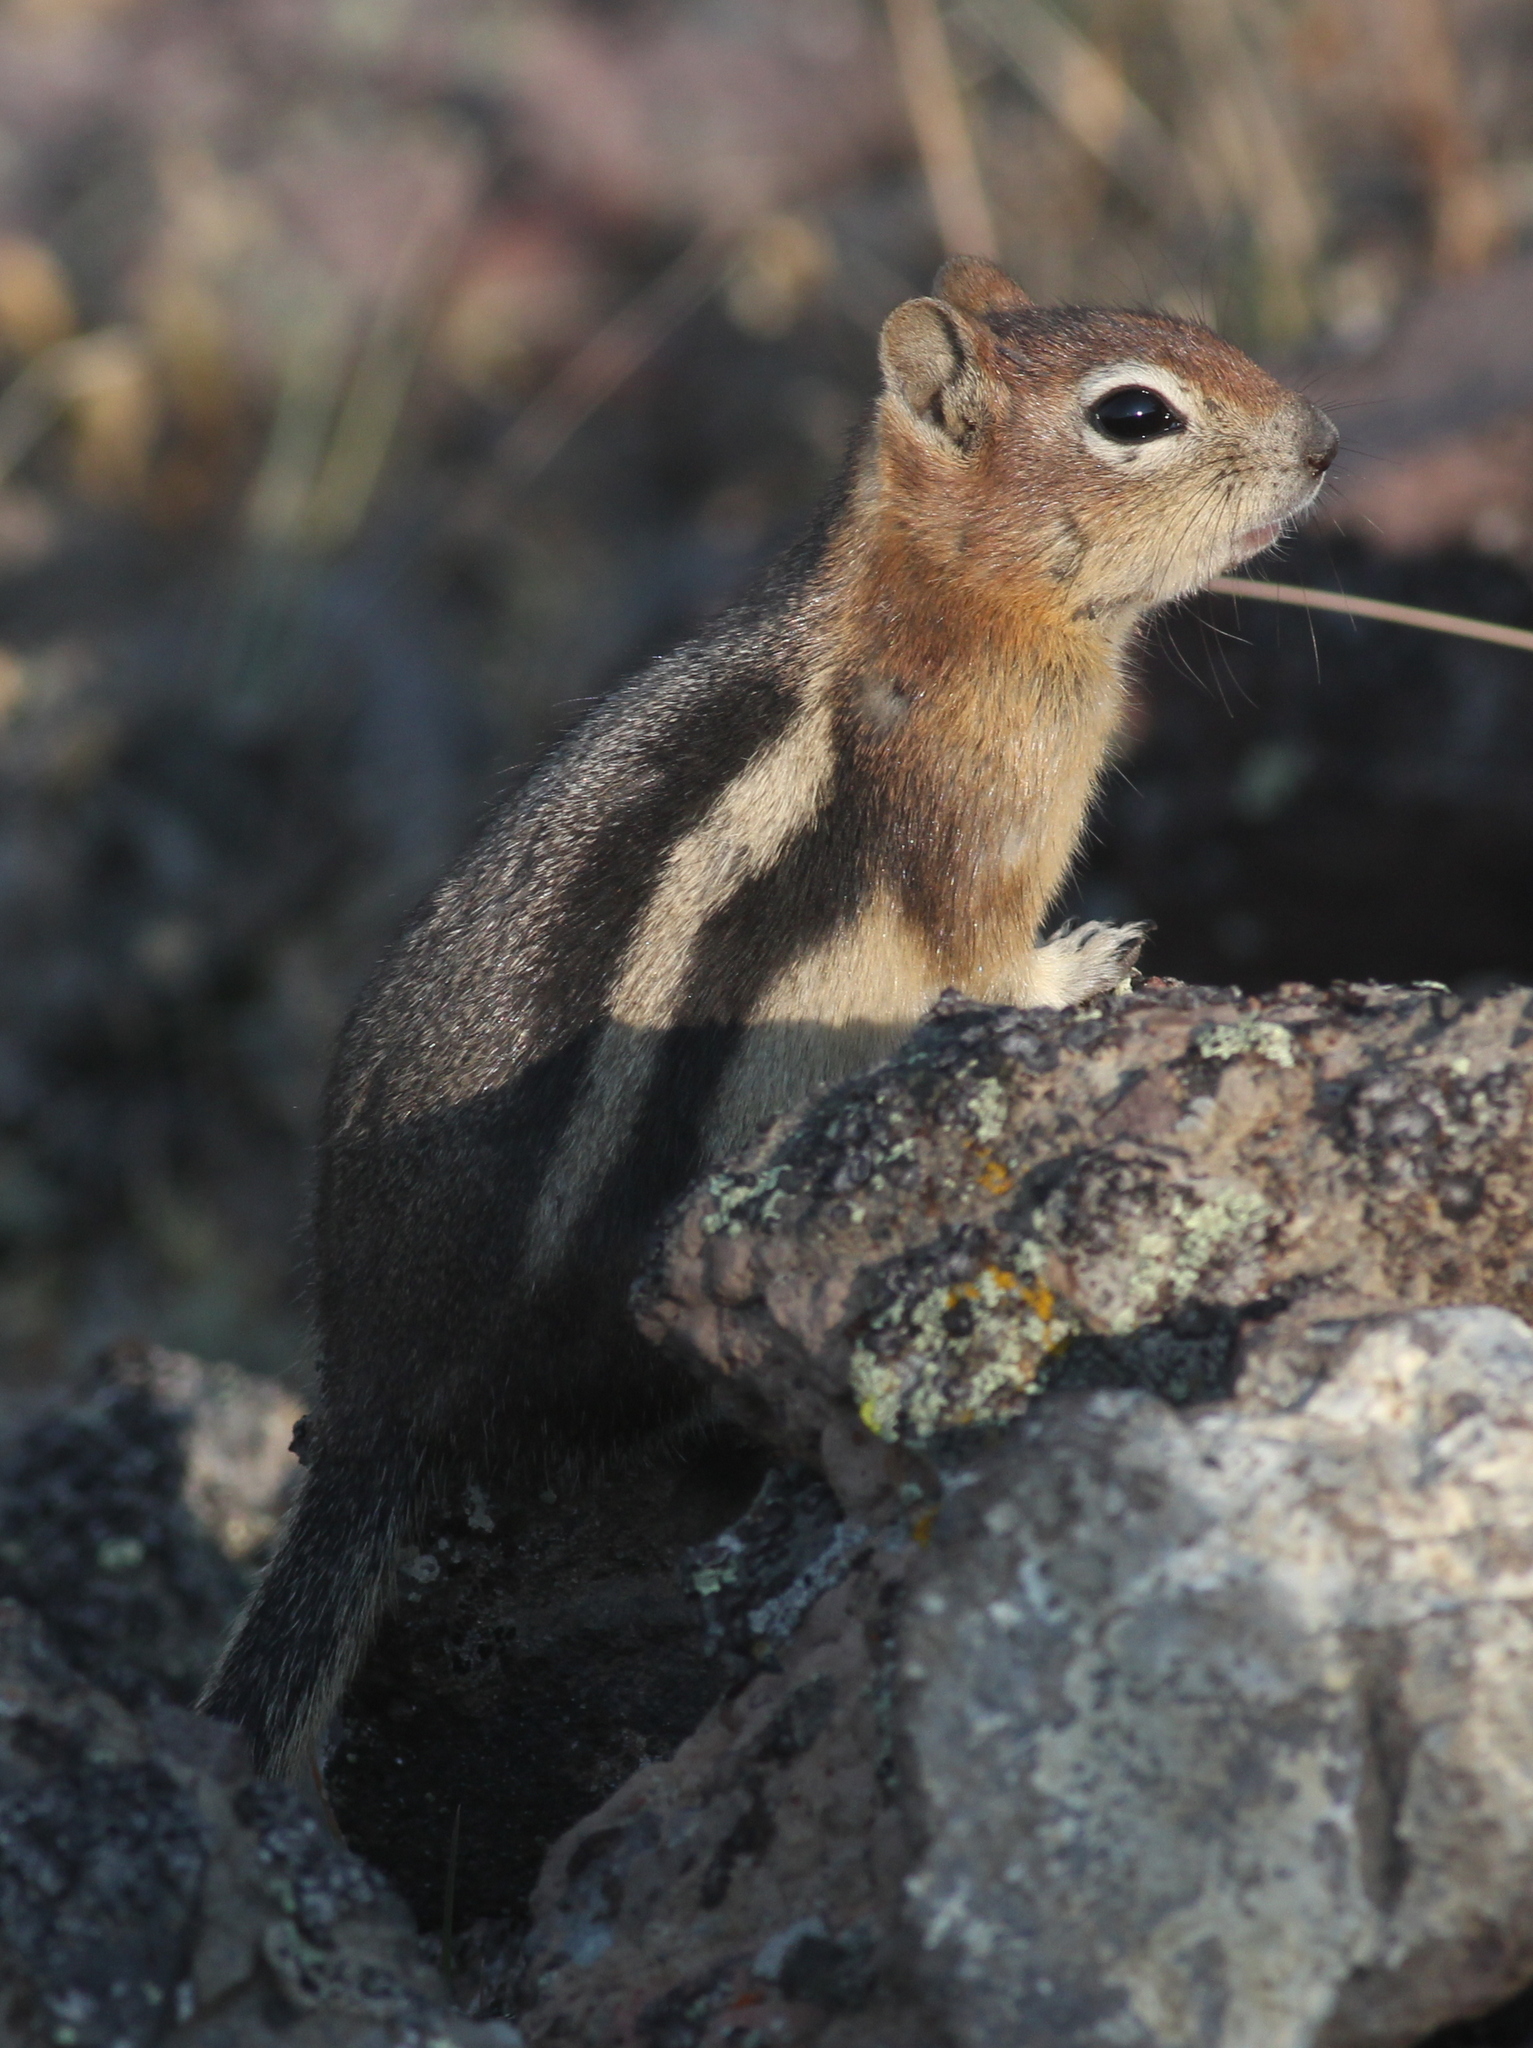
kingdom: Animalia
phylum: Chordata
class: Mammalia
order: Rodentia
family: Sciuridae
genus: Callospermophilus
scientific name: Callospermophilus lateralis
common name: Golden-mantled ground squirrel
